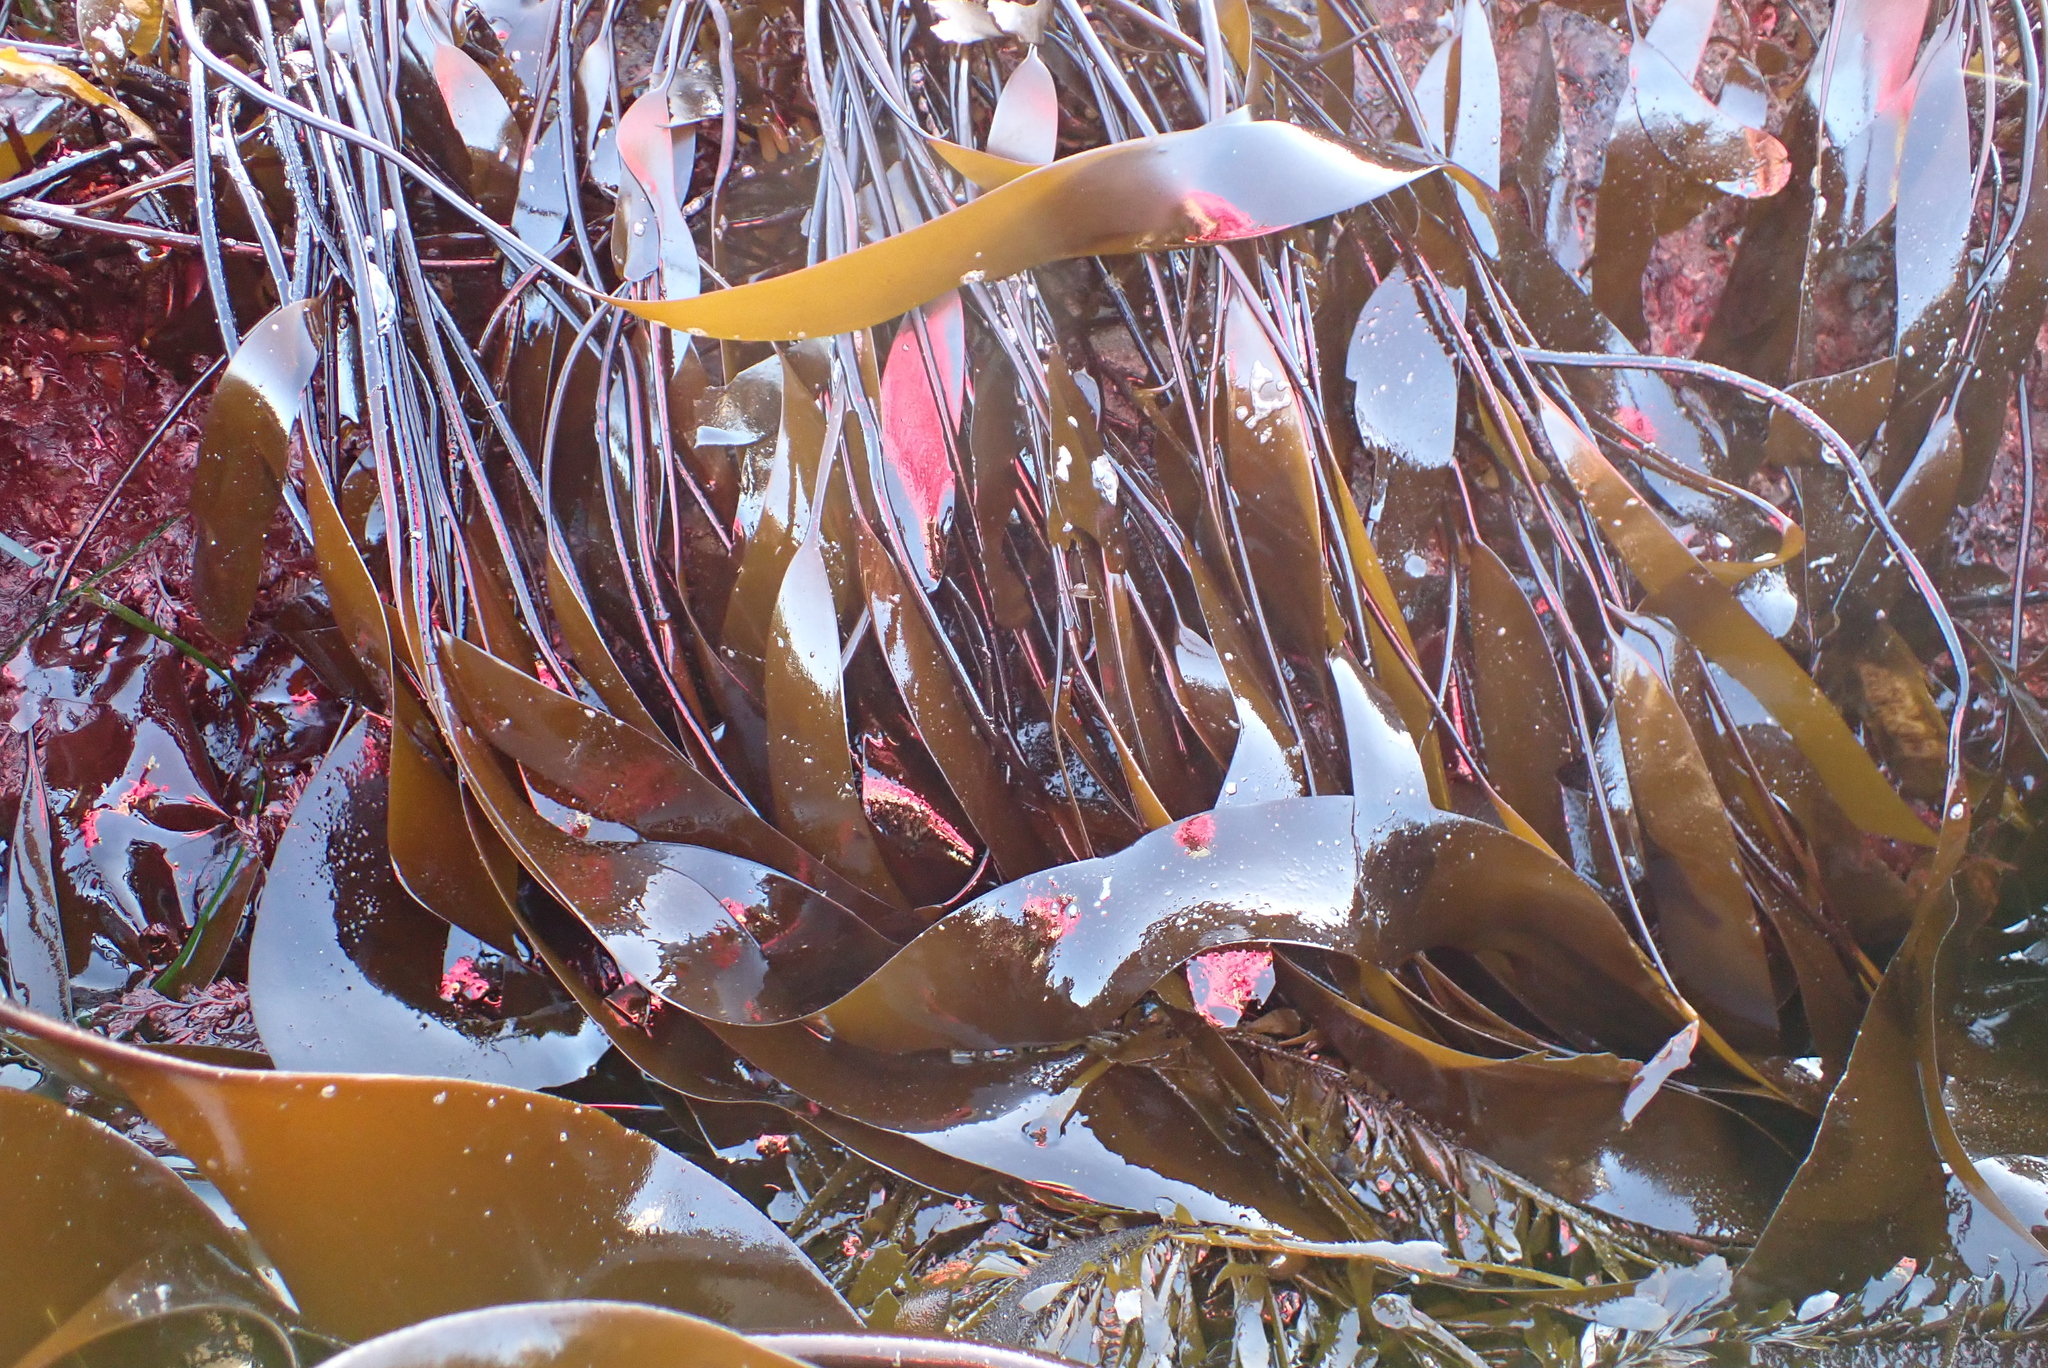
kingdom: Chromista
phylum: Ochrophyta
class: Phaeophyceae
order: Laminariales
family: Laminariaceae
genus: Laminaria
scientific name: Laminaria sinclairii
